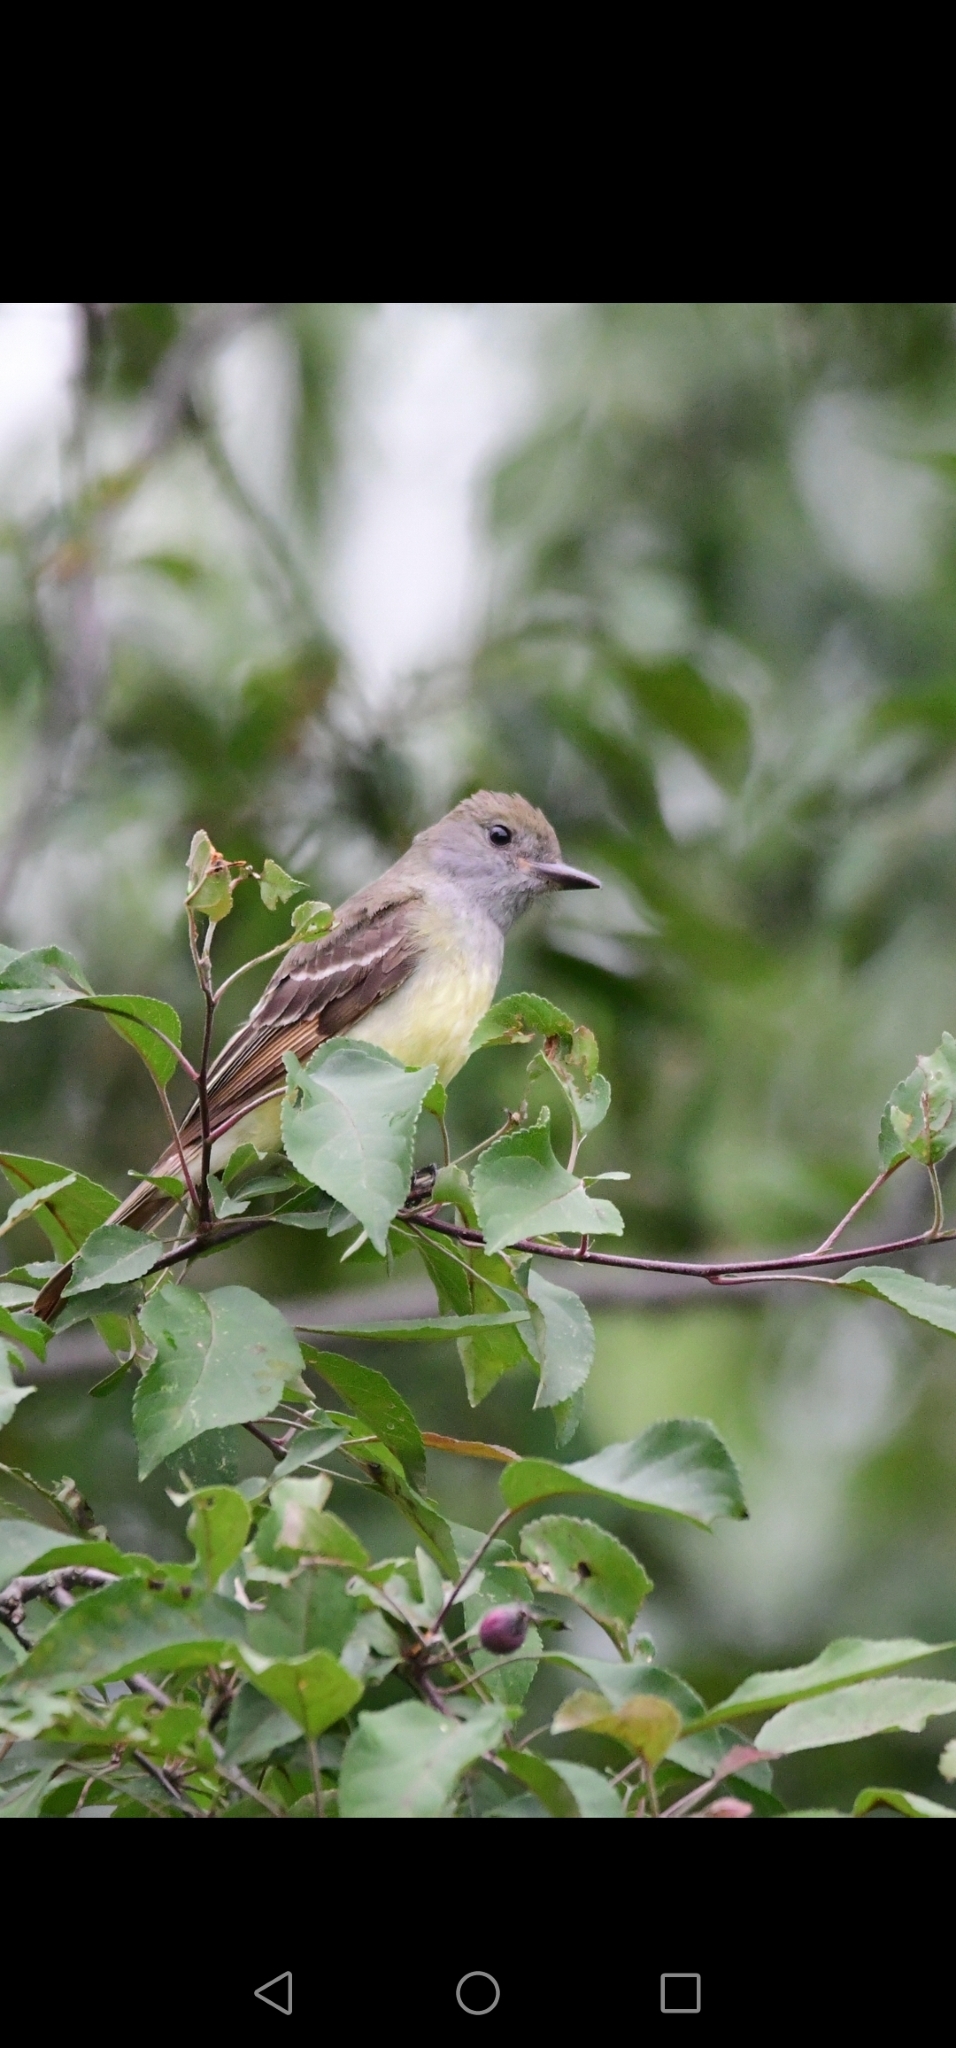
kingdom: Animalia
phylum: Chordata
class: Aves
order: Passeriformes
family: Tyrannidae
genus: Myiarchus
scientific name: Myiarchus crinitus
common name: Great crested flycatcher
